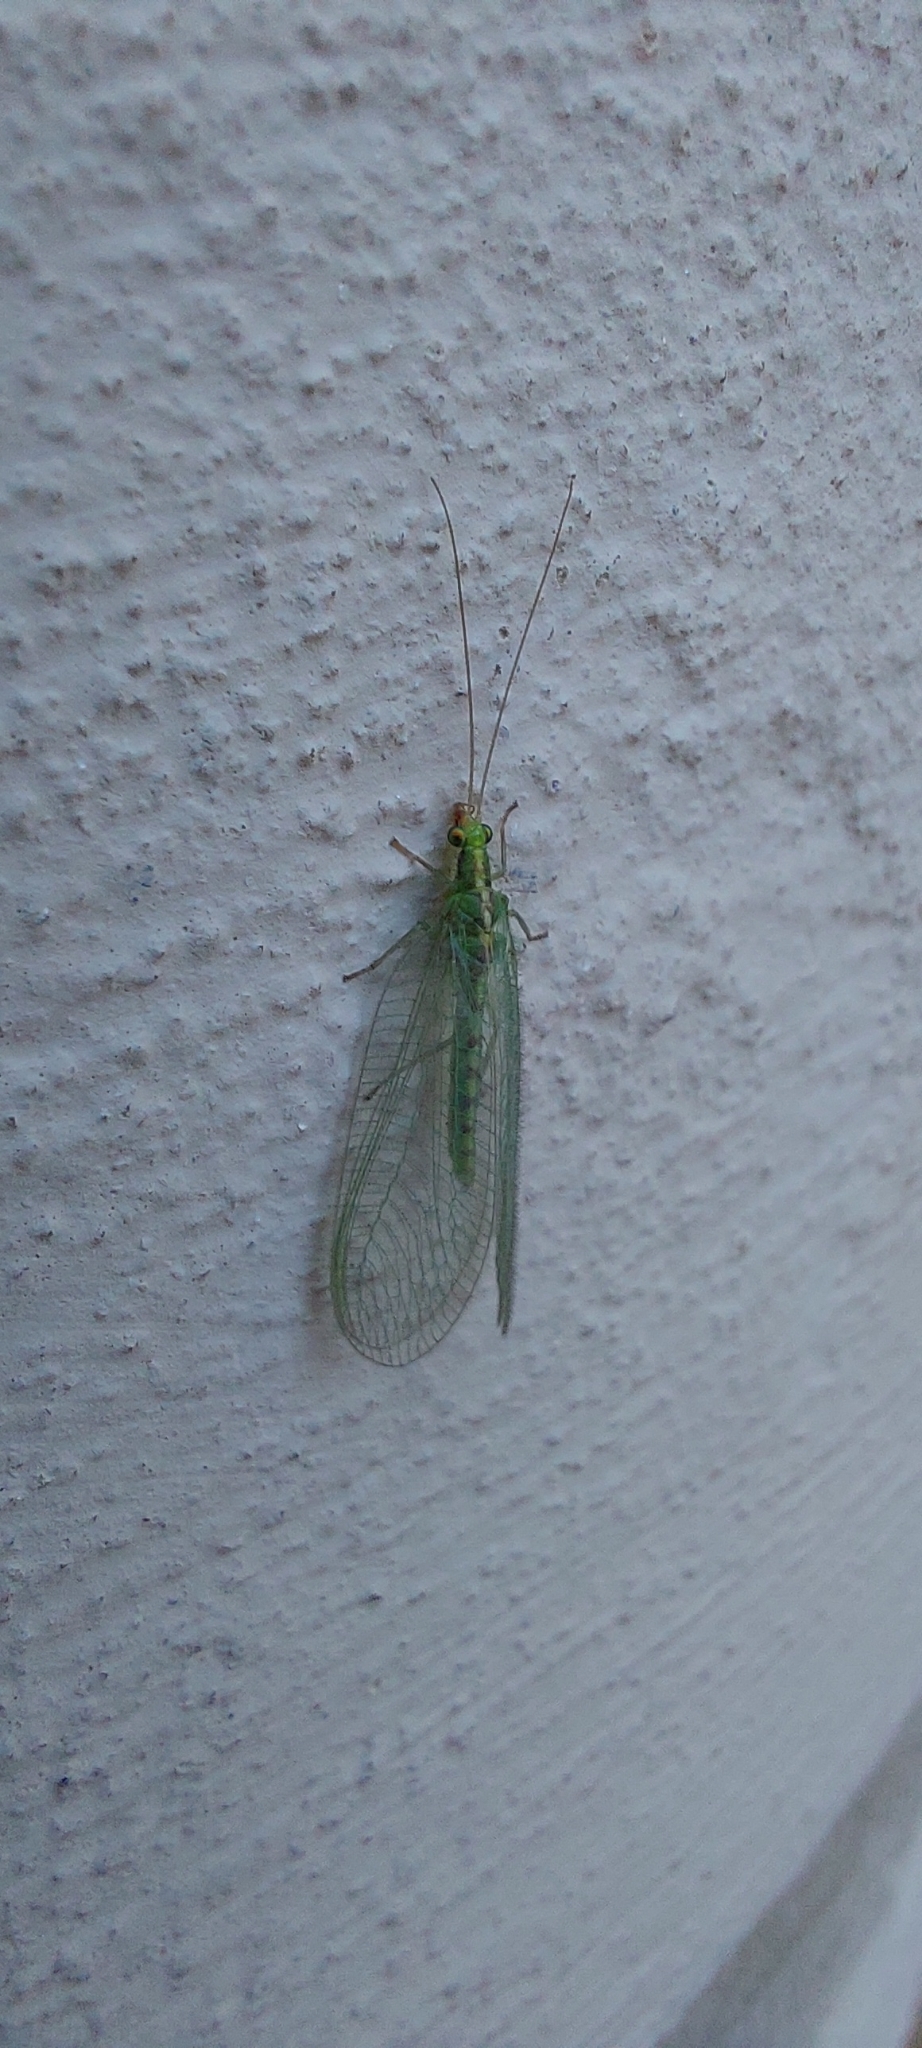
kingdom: Animalia
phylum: Arthropoda
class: Insecta
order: Neuroptera
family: Chrysopidae
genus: Chrysoperla
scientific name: Chrysoperla
